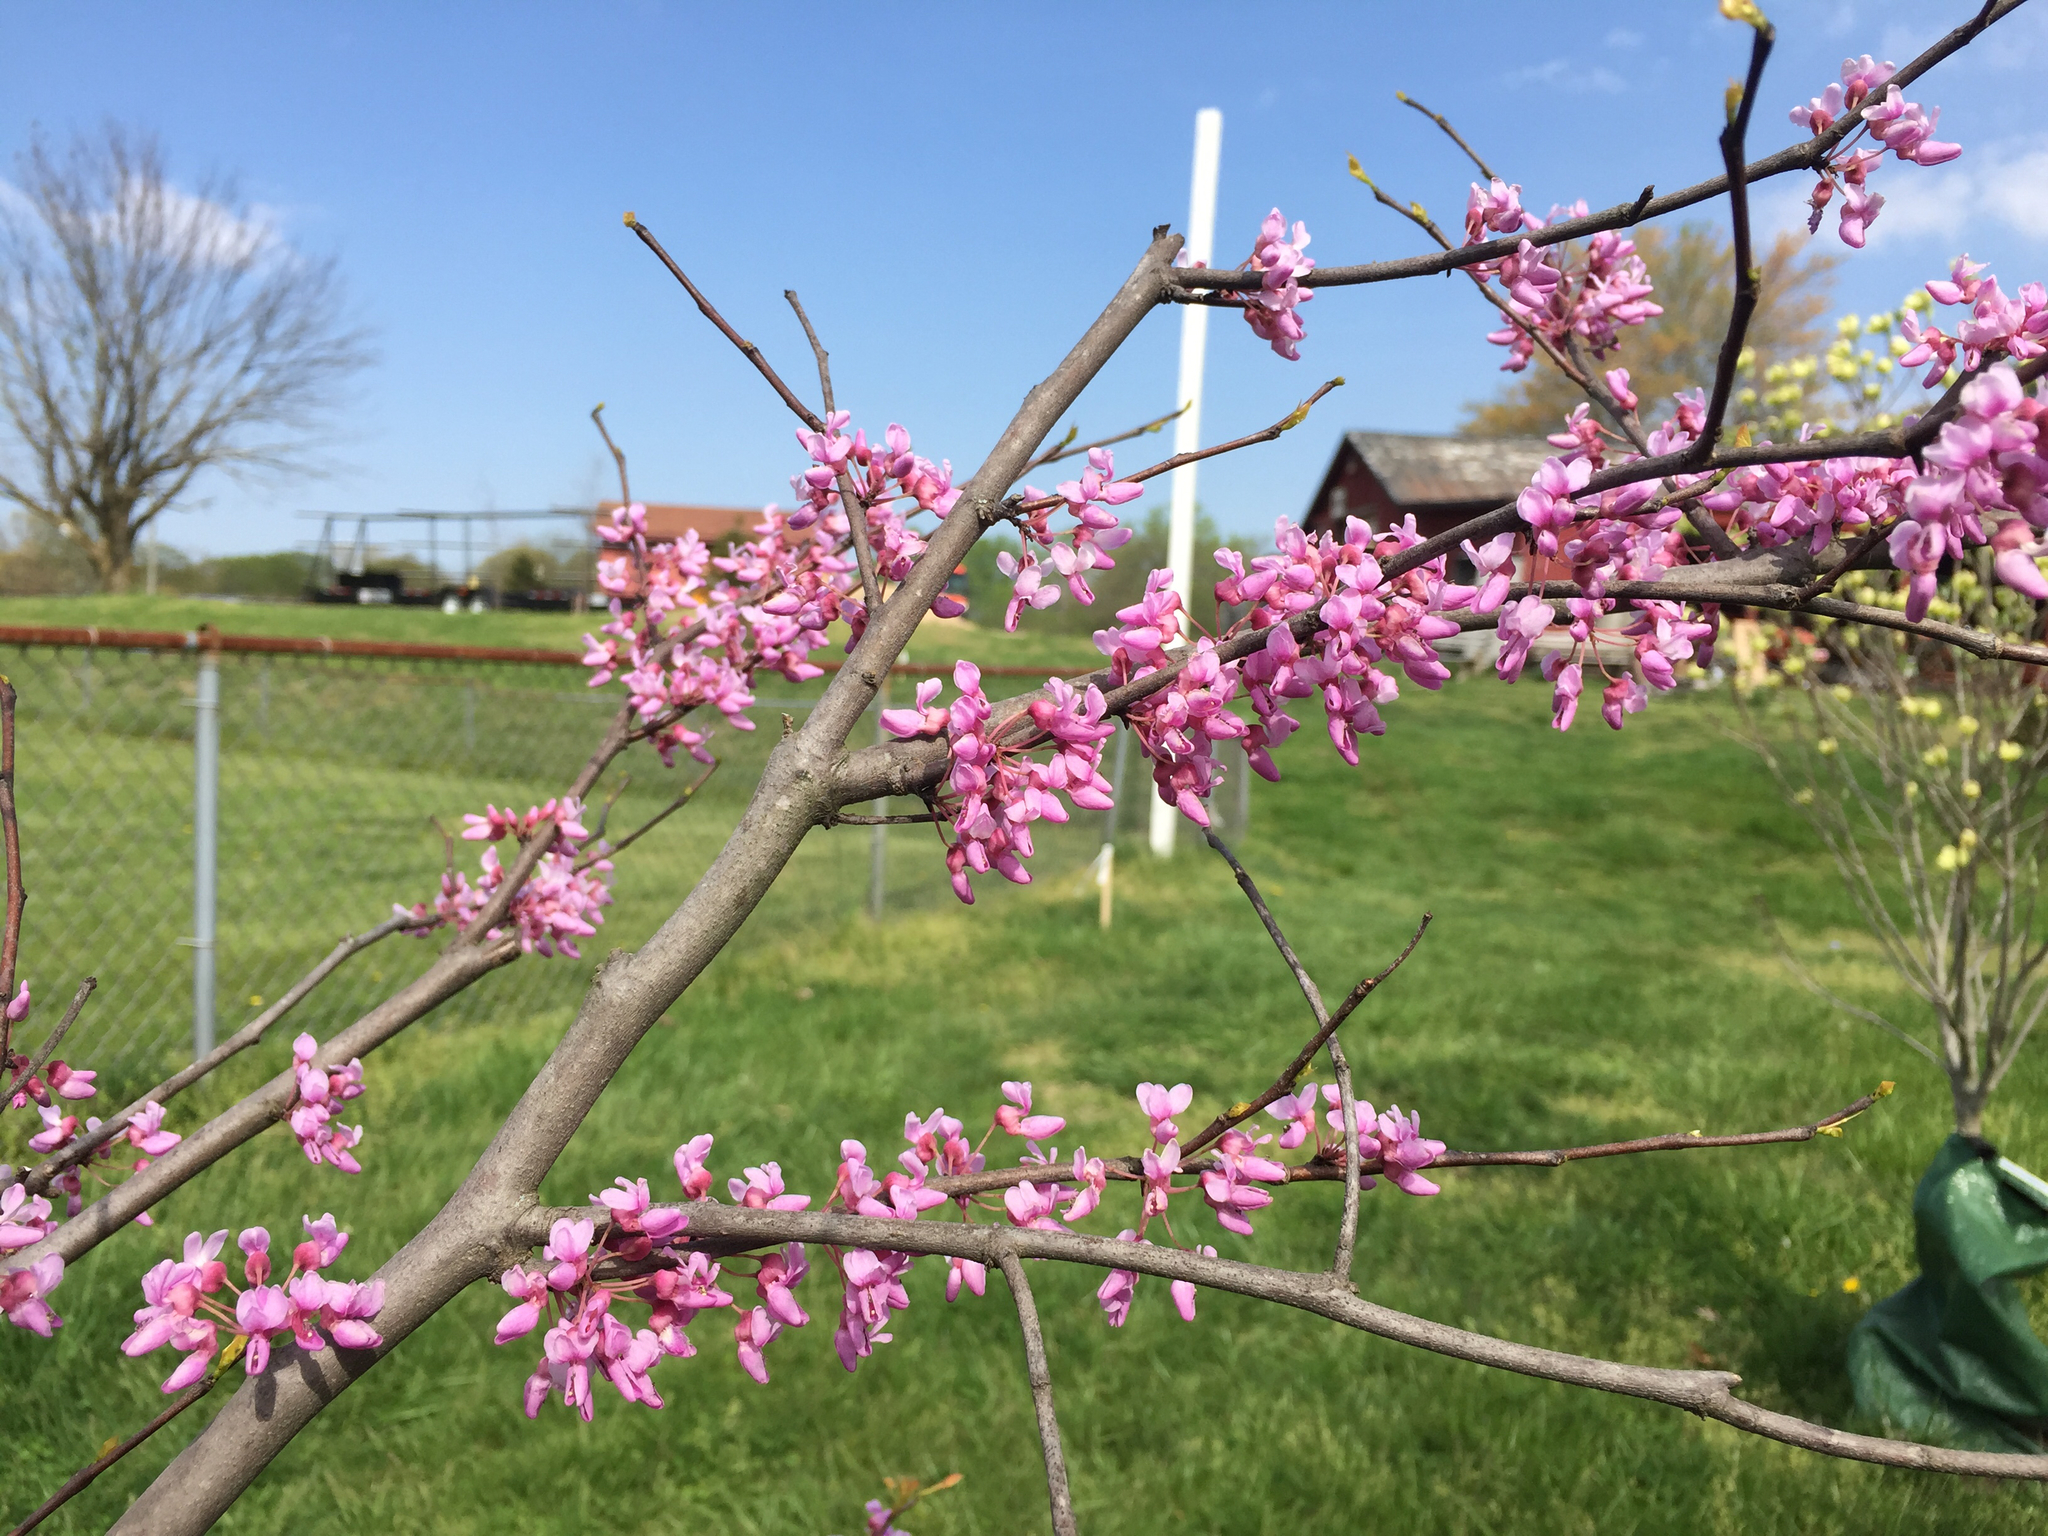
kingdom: Plantae
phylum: Tracheophyta
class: Magnoliopsida
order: Fabales
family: Fabaceae
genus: Cercis
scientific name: Cercis canadensis
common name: Eastern redbud
